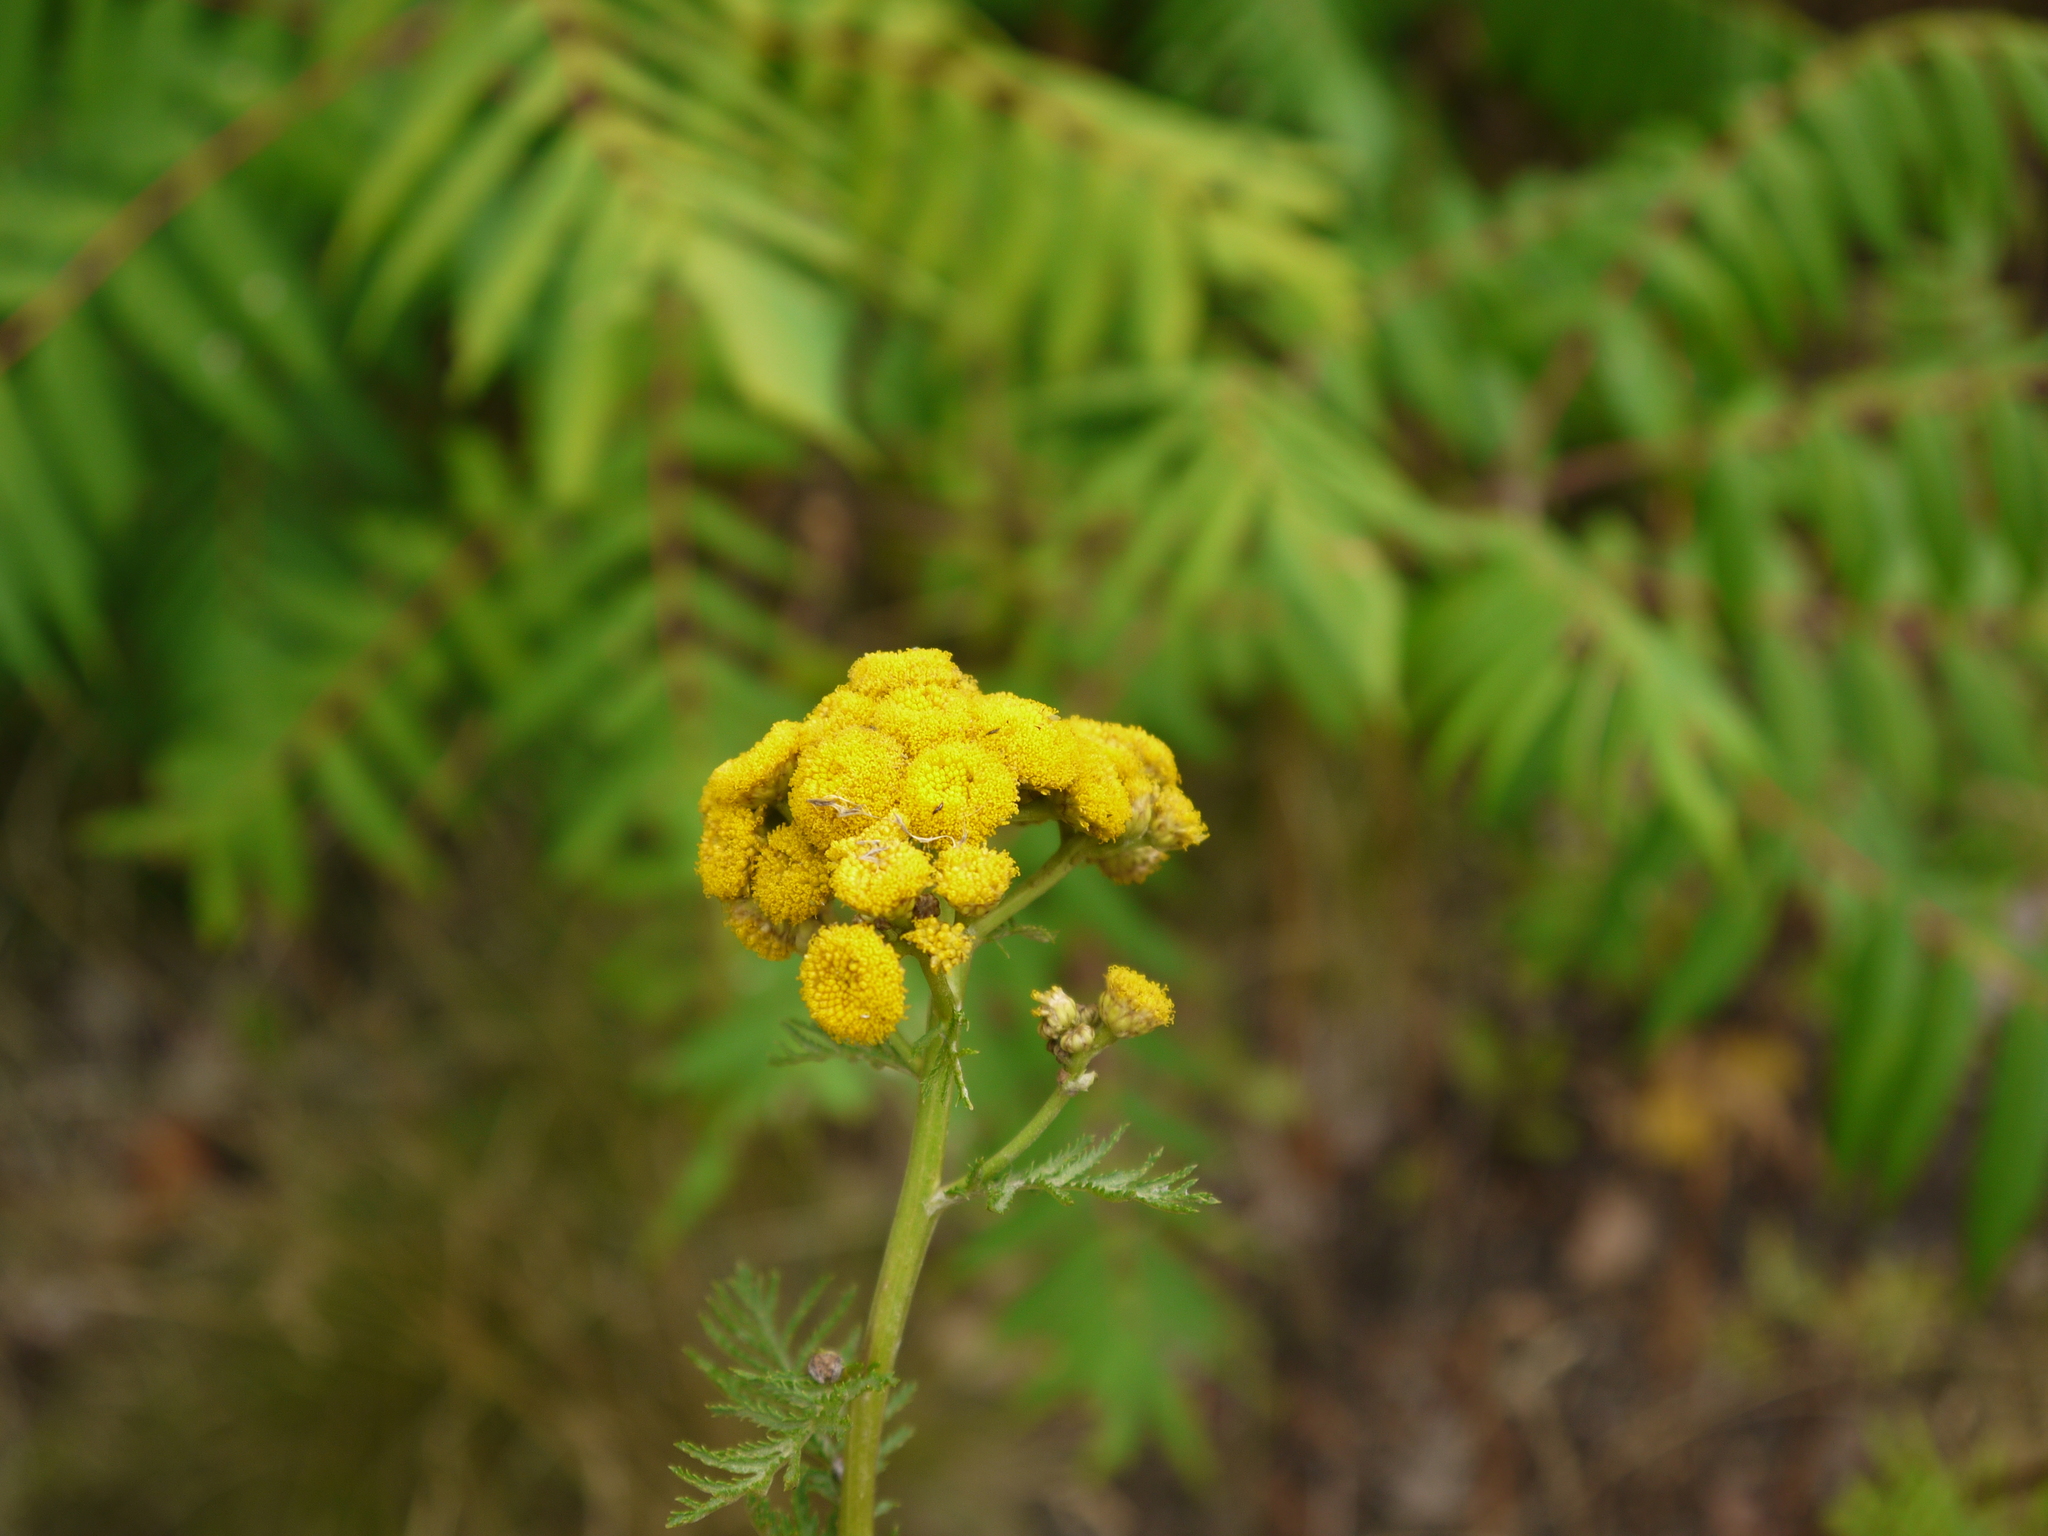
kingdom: Plantae
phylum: Tracheophyta
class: Magnoliopsida
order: Asterales
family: Asteraceae
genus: Tanacetum
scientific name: Tanacetum vulgare
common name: Common tansy
